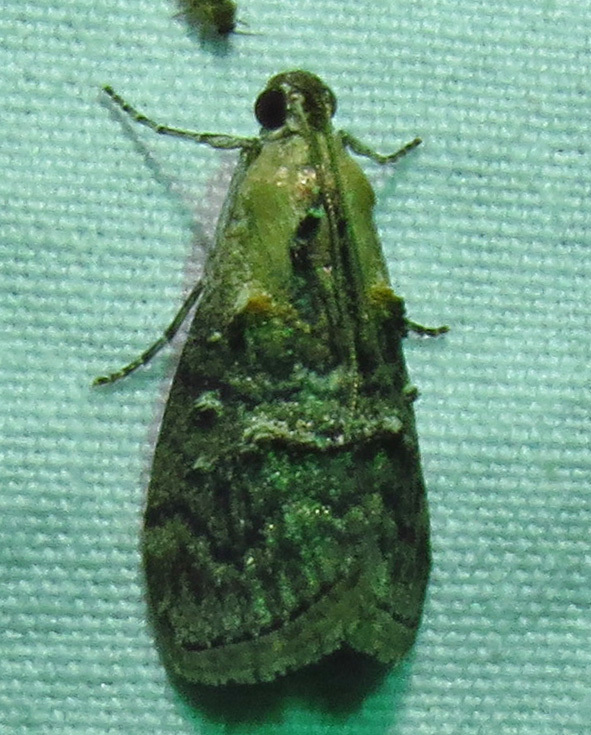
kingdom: Animalia
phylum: Arthropoda
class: Insecta
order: Lepidoptera
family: Pyralidae
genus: Pococera
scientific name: Pococera expandens
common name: Striped oak webworm moth
